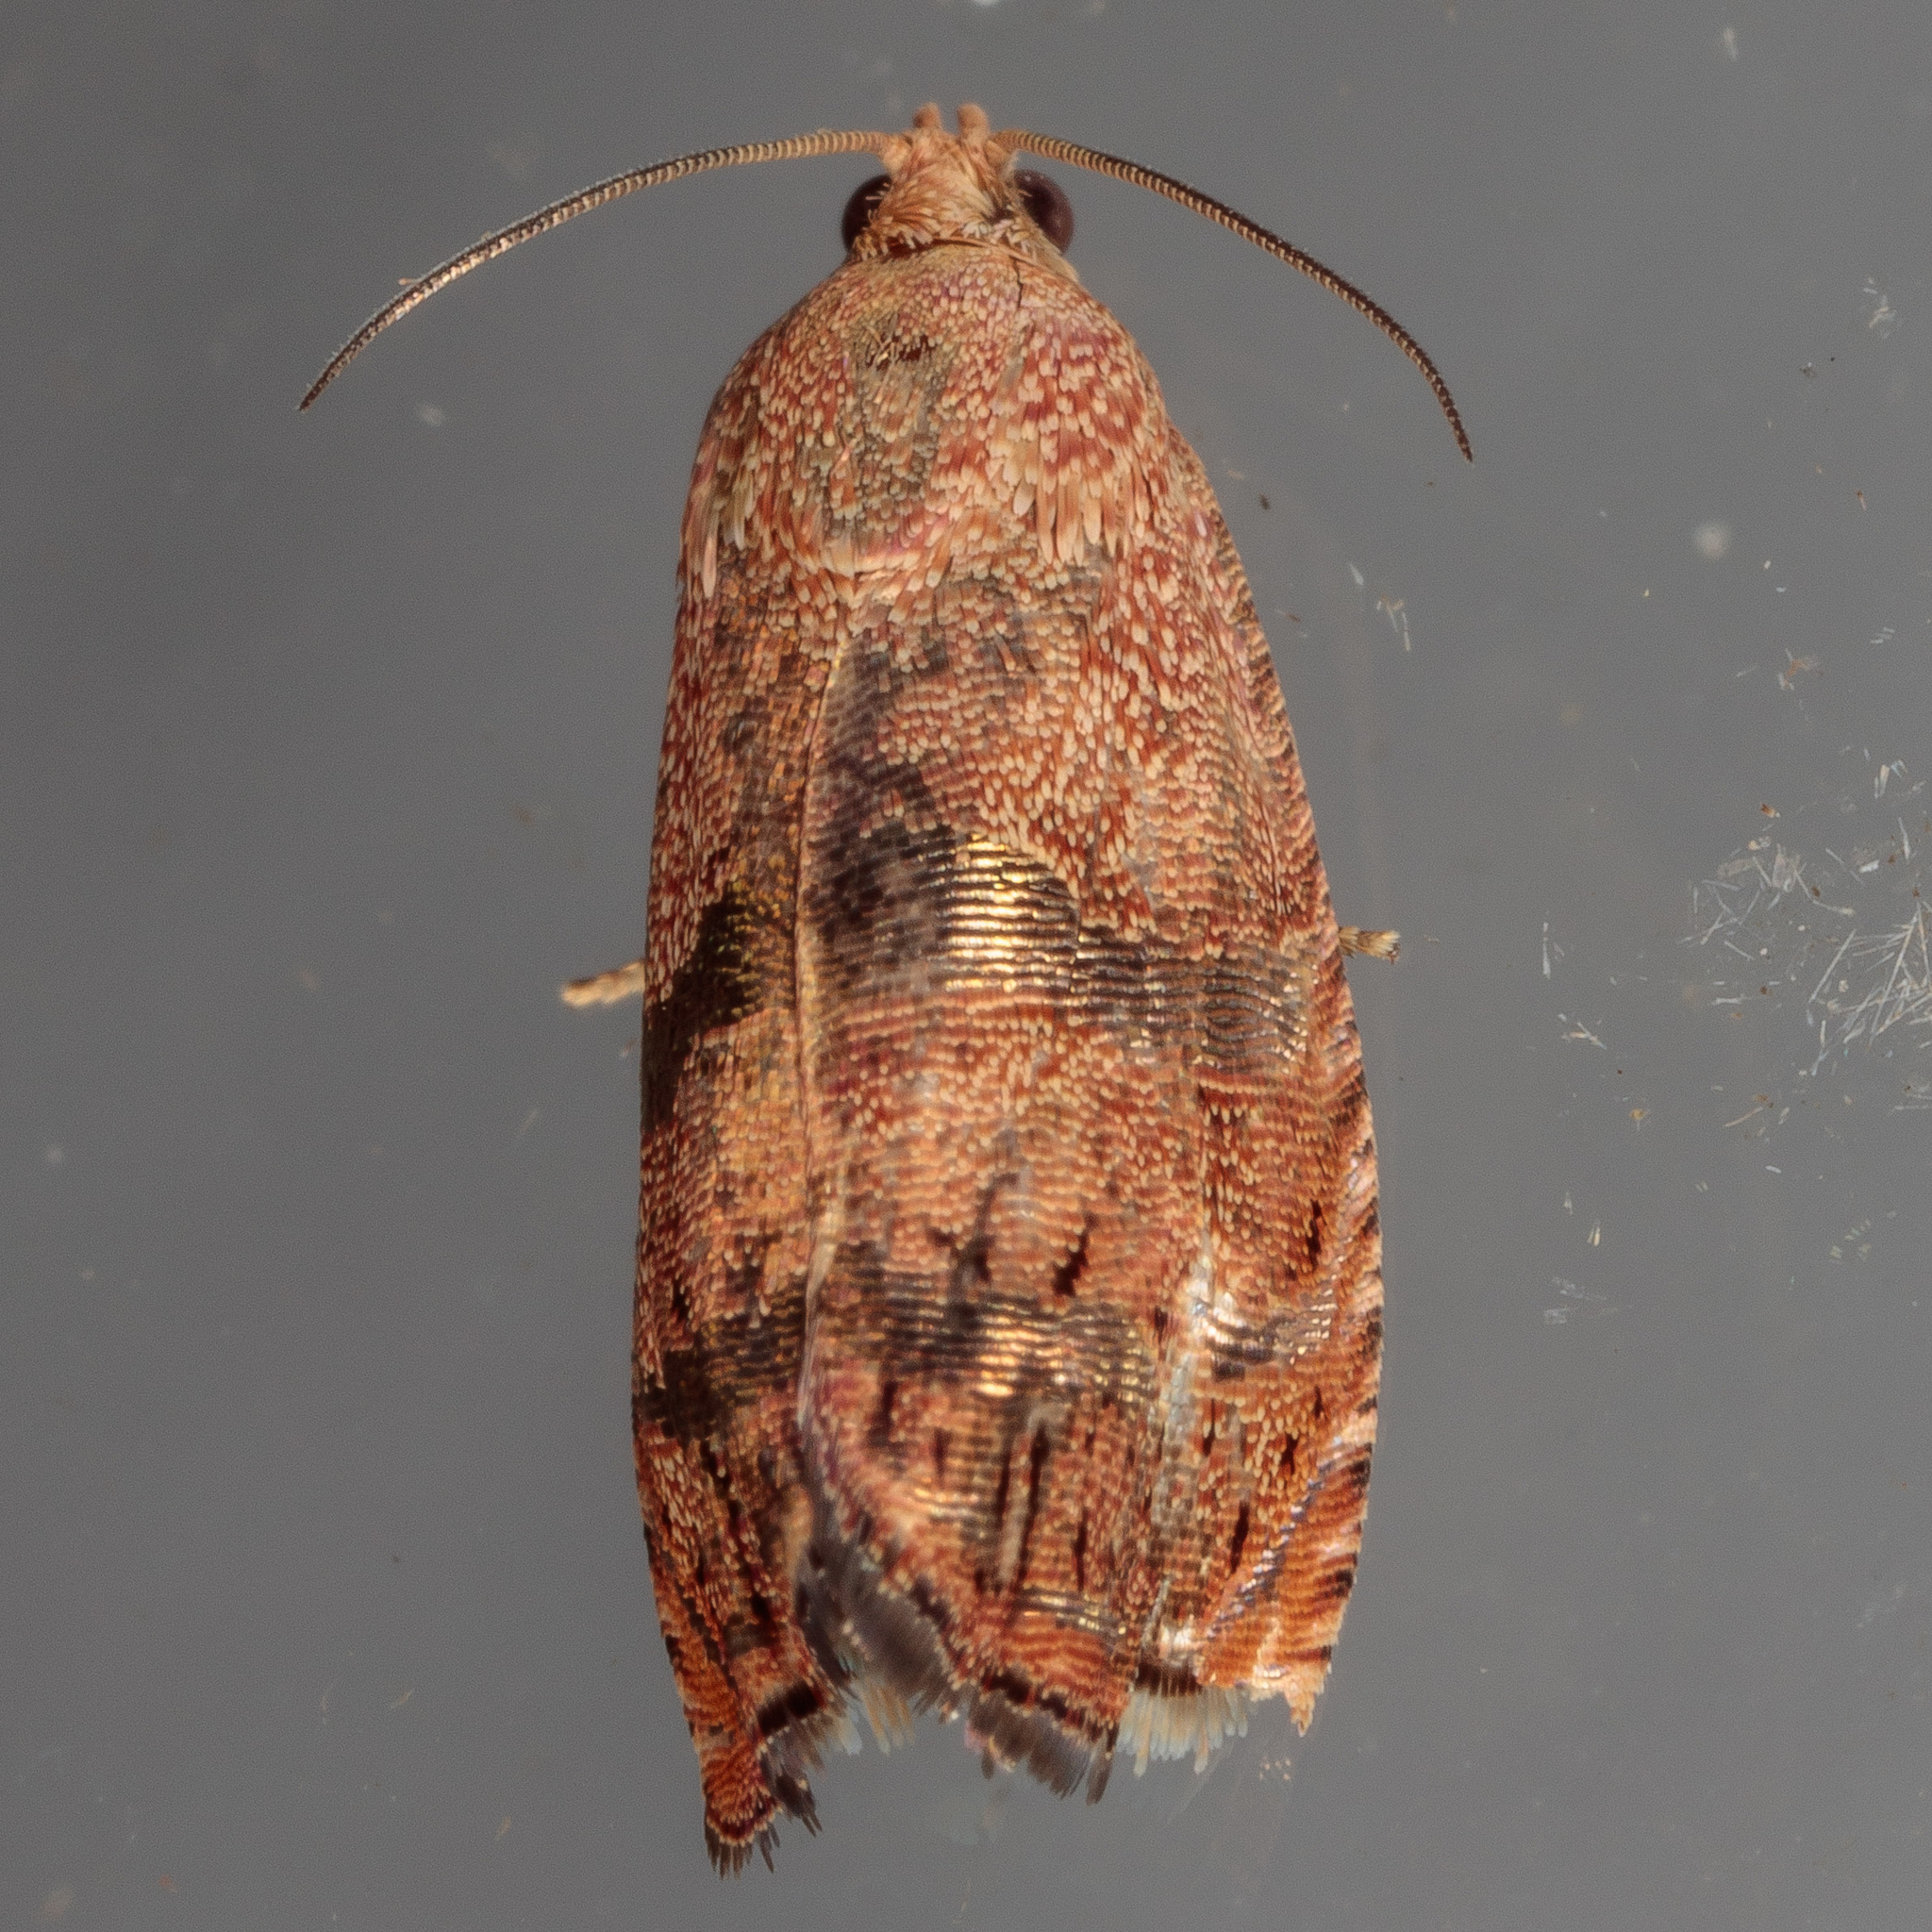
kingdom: Animalia
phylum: Arthropoda
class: Insecta
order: Lepidoptera
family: Tortricidae
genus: Cydia
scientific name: Cydia latiferreana
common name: Filbertworm moth
